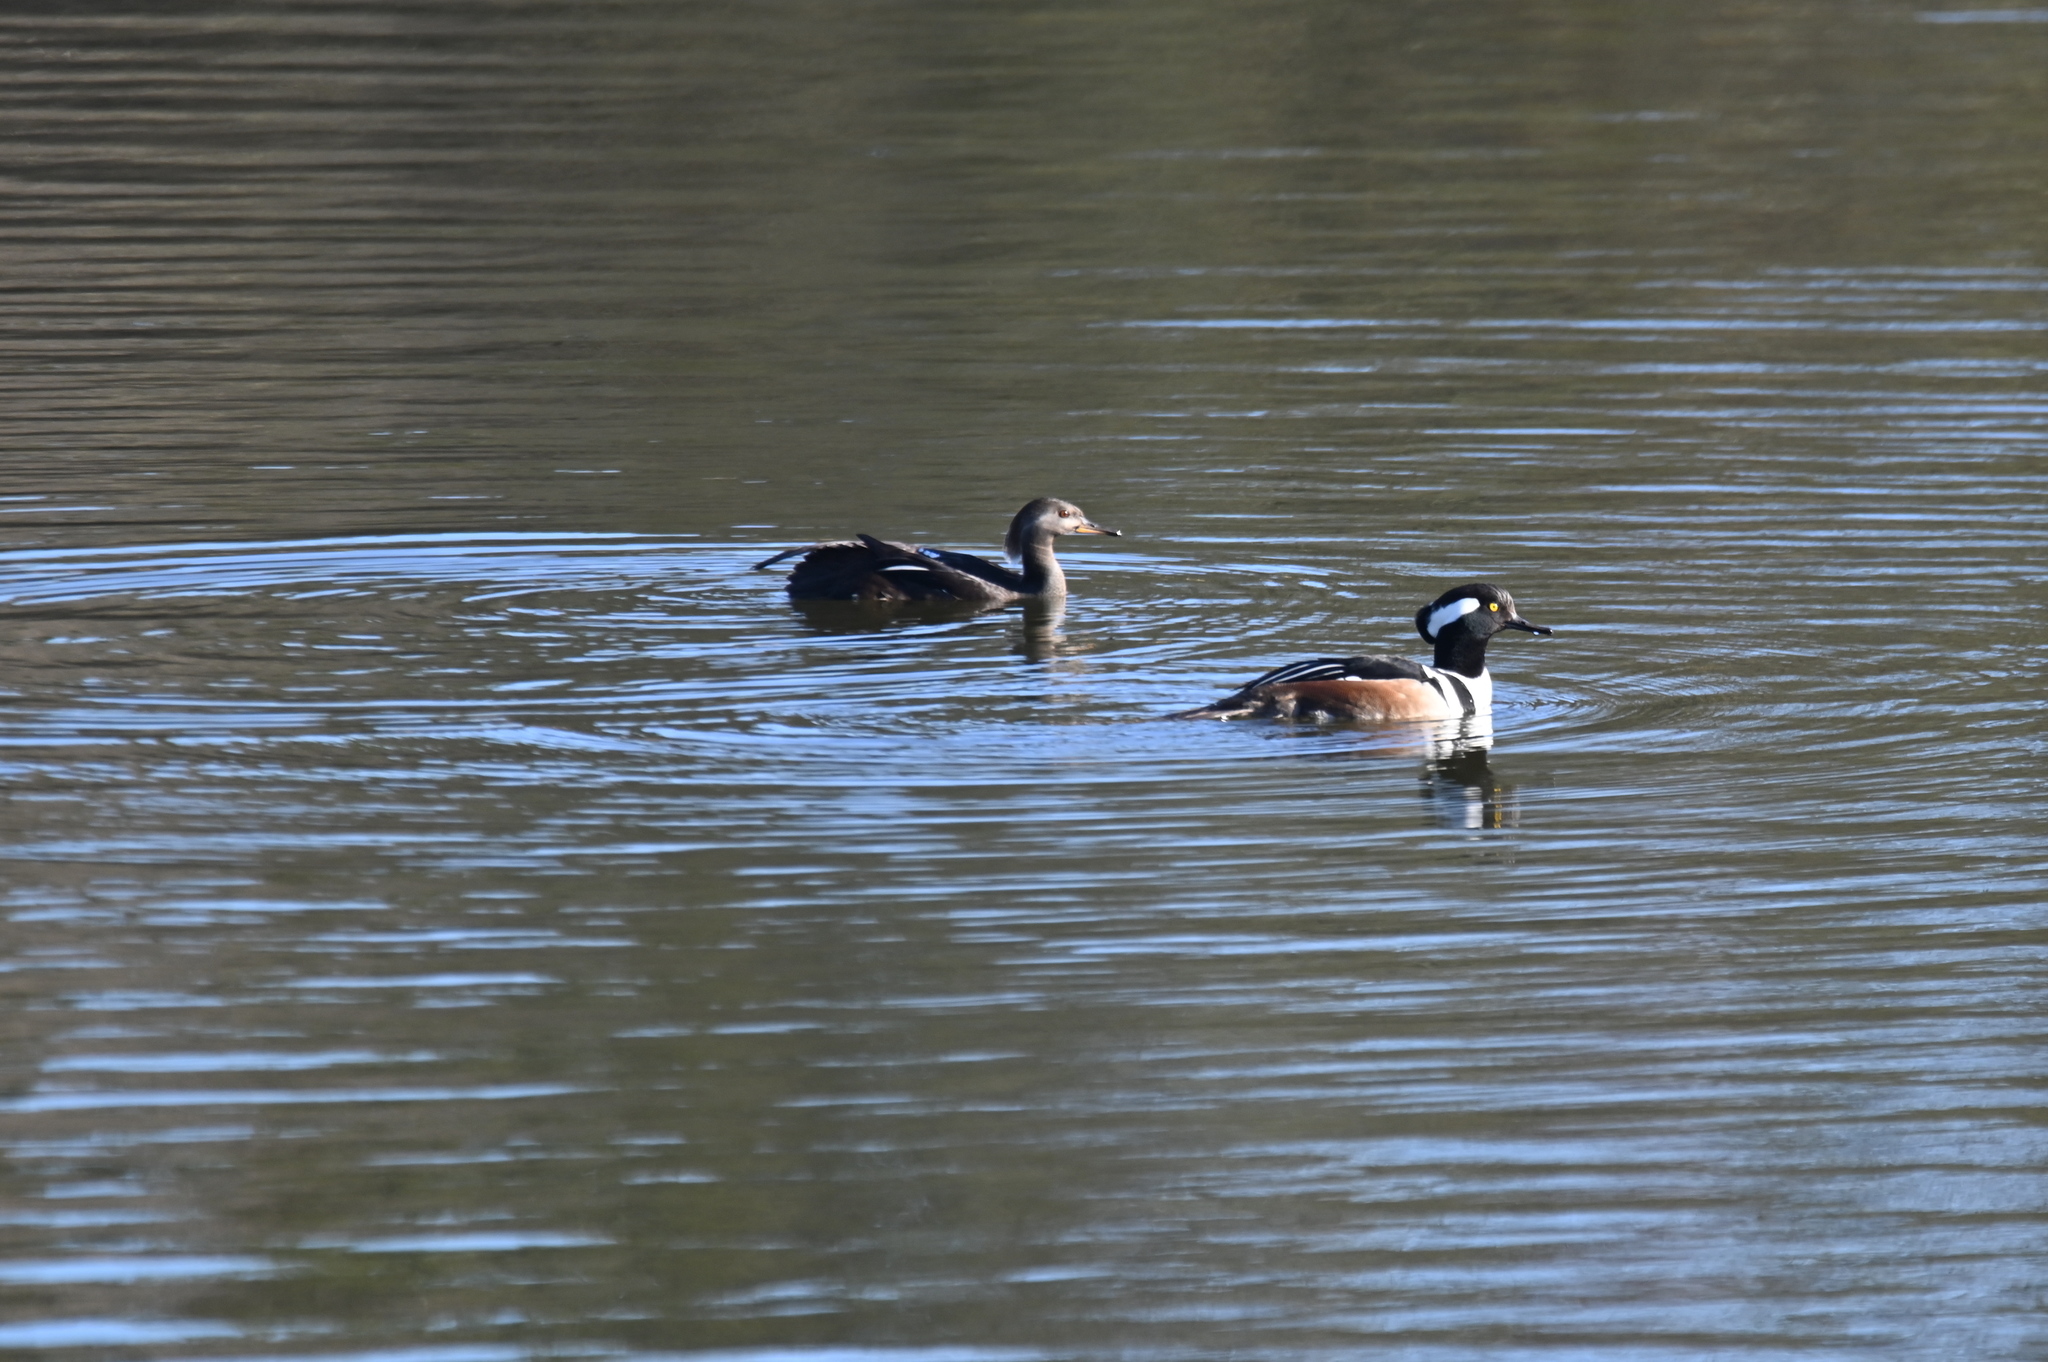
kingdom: Animalia
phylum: Chordata
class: Aves
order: Anseriformes
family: Anatidae
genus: Lophodytes
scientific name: Lophodytes cucullatus
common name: Hooded merganser
